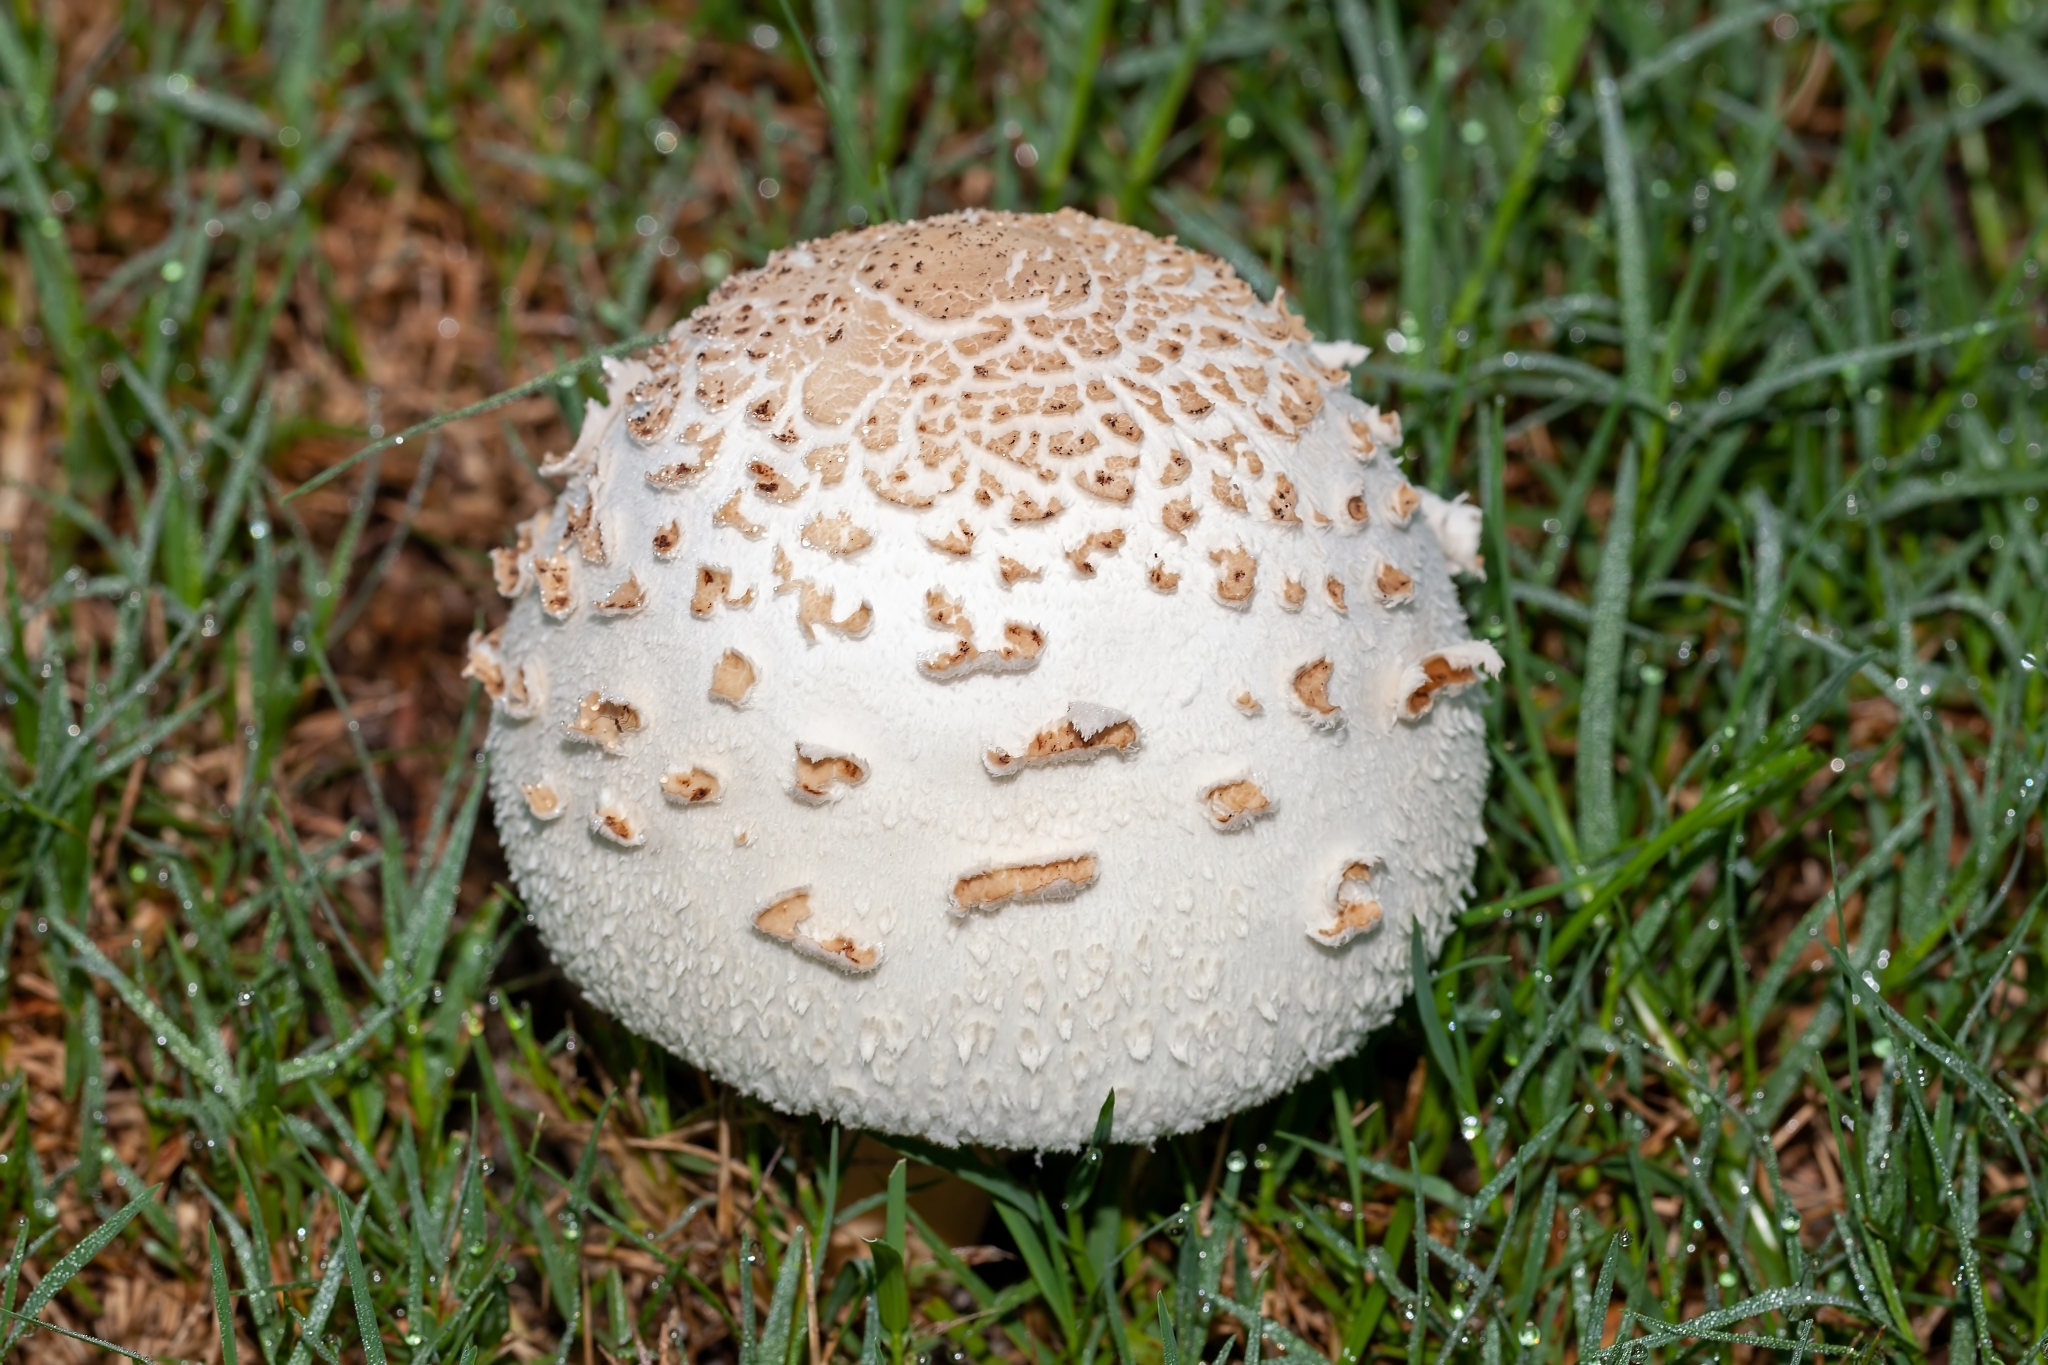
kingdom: Fungi
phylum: Basidiomycota
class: Agaricomycetes
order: Agaricales
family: Agaricaceae
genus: Chlorophyllum
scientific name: Chlorophyllum molybdites
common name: False parasol
